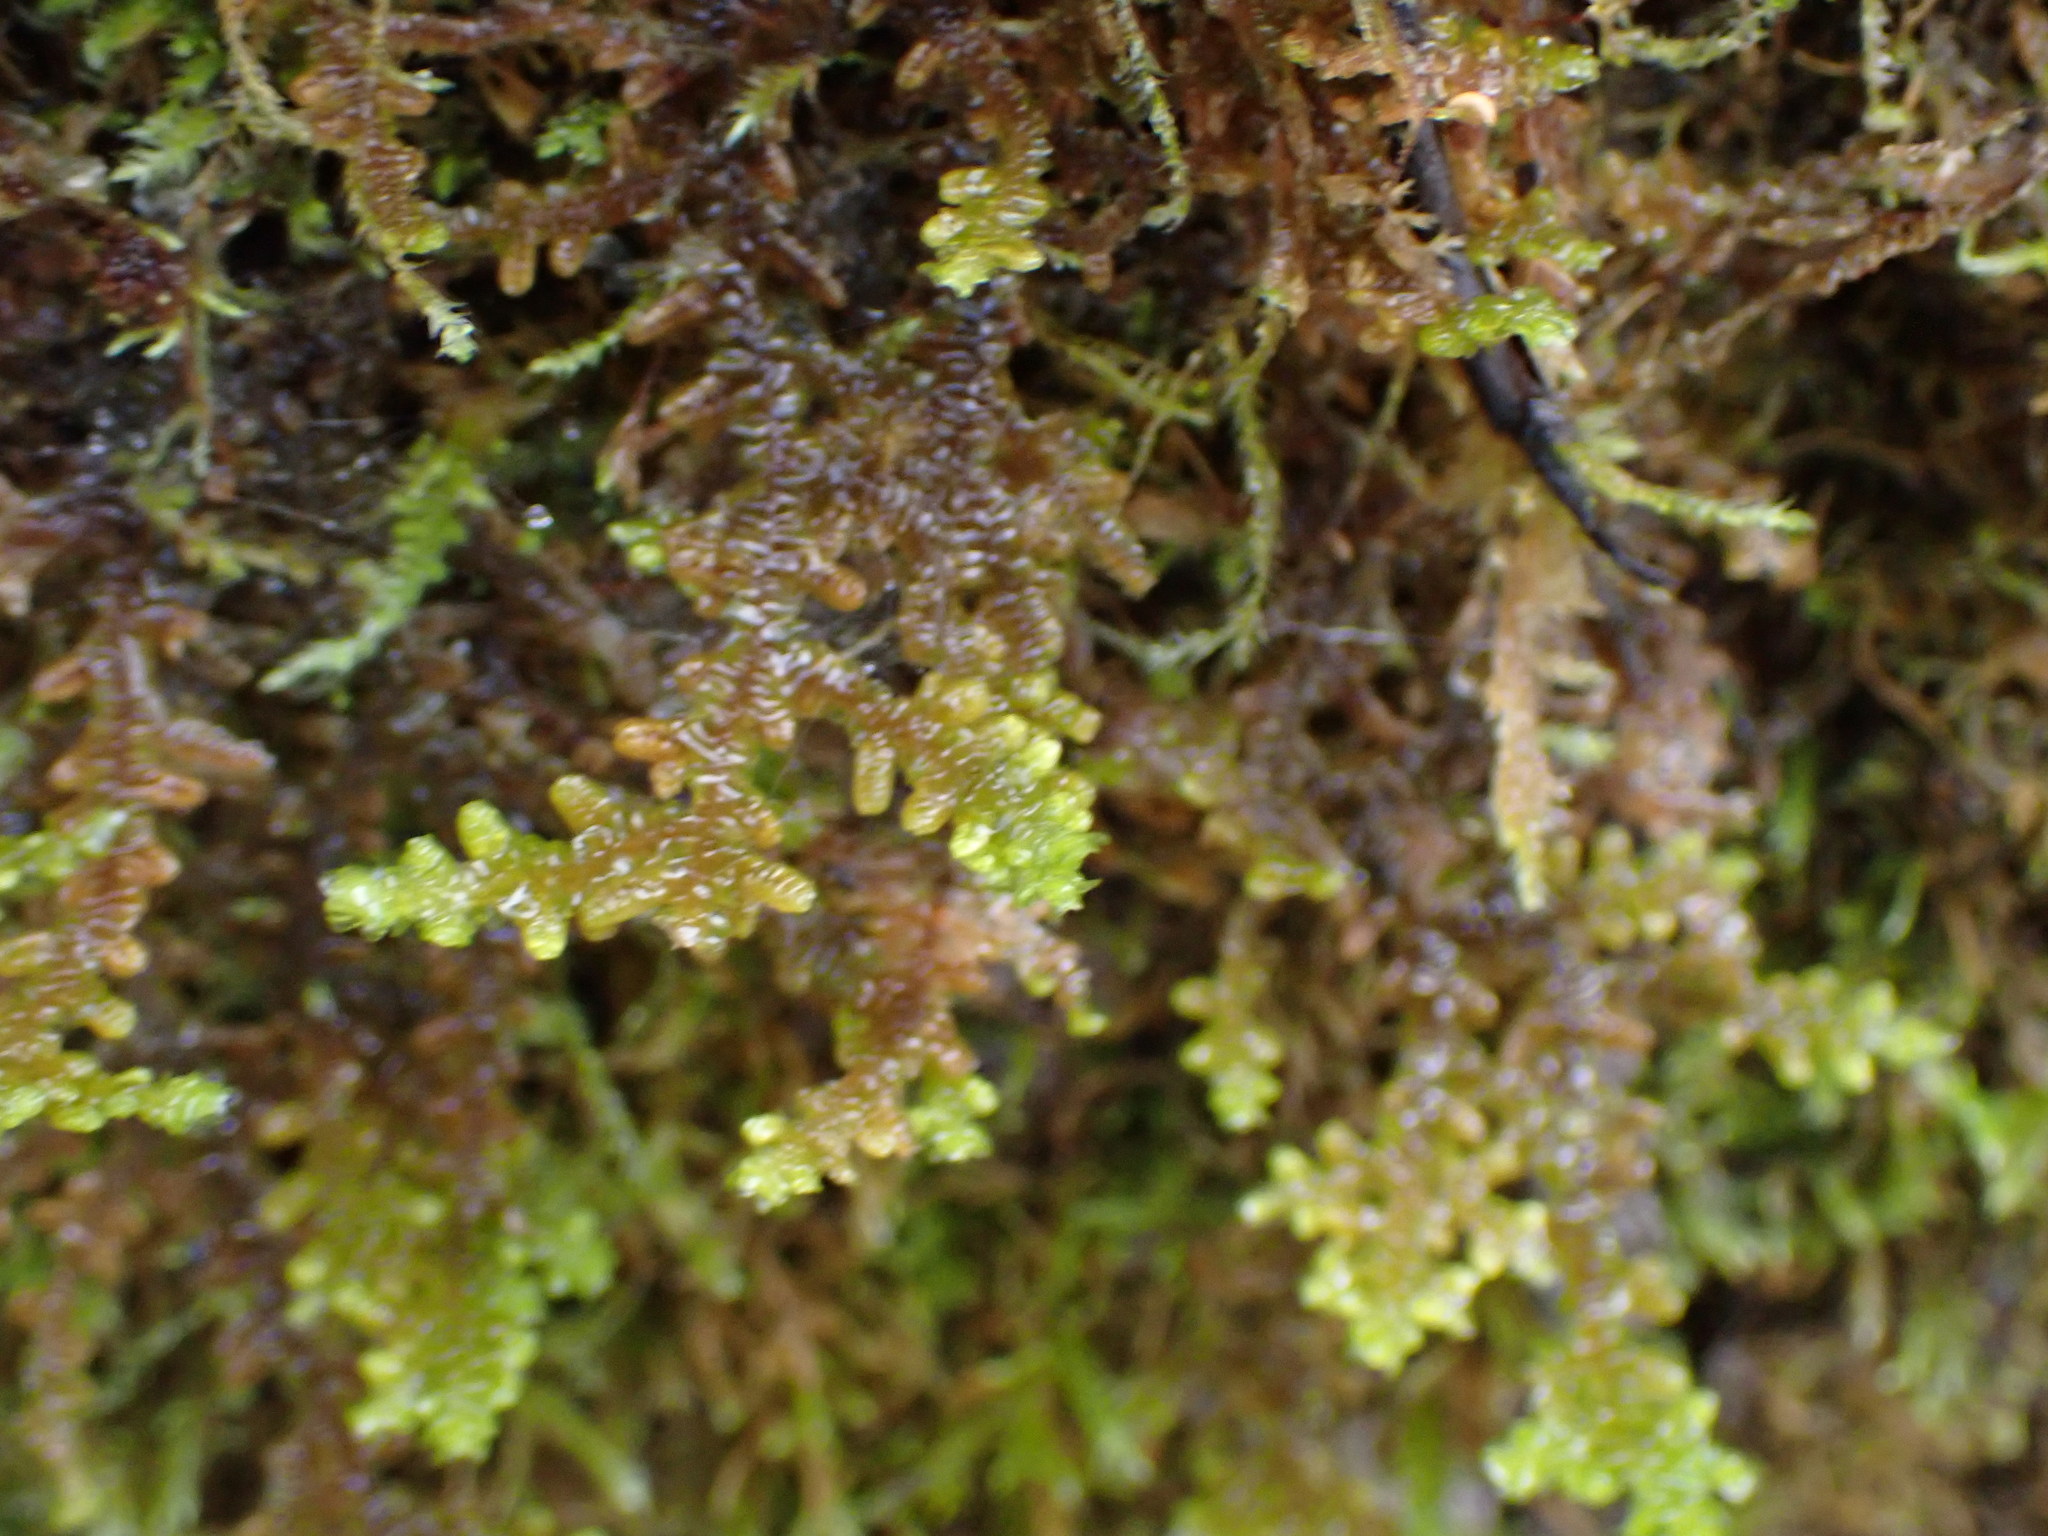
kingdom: Plantae
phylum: Marchantiophyta
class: Jungermanniopsida
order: Porellales
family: Porellaceae
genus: Porella
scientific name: Porella navicularis
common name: Tree ruffle liverwort
